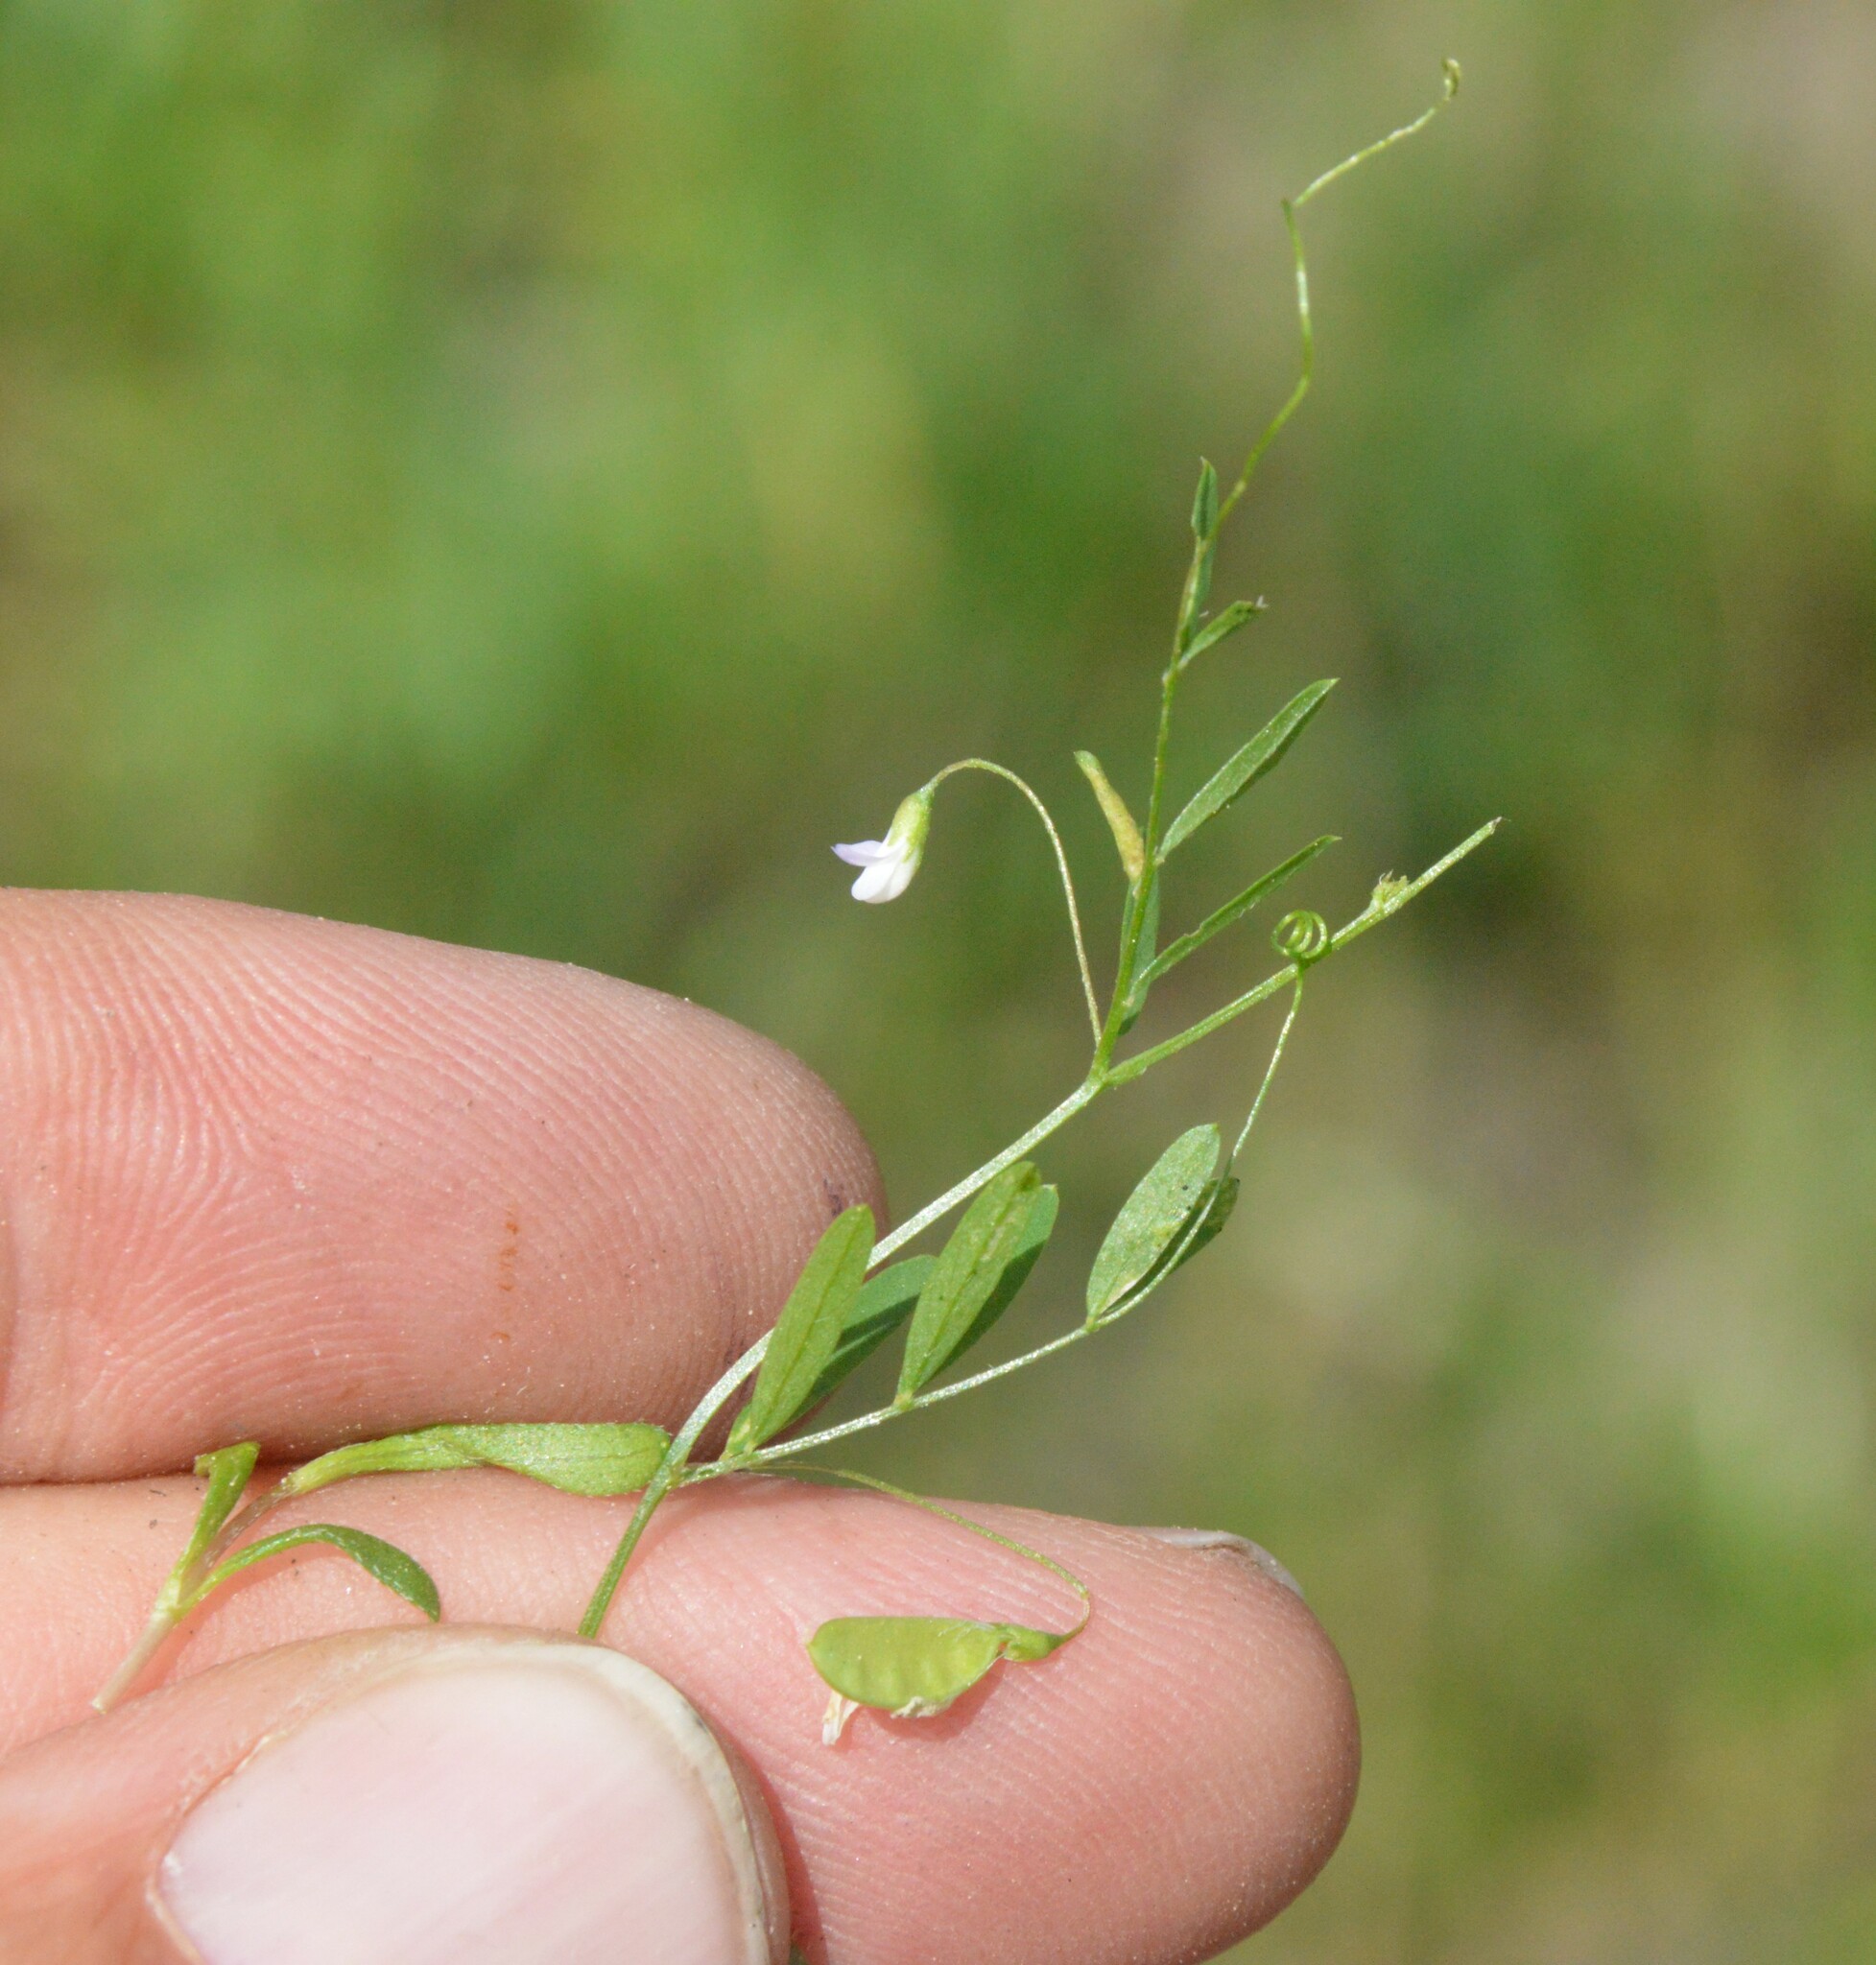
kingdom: Plantae
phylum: Tracheophyta
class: Magnoliopsida
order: Fabales
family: Fabaceae
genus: Vicia
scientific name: Vicia tetrasperma
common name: Smooth tare
